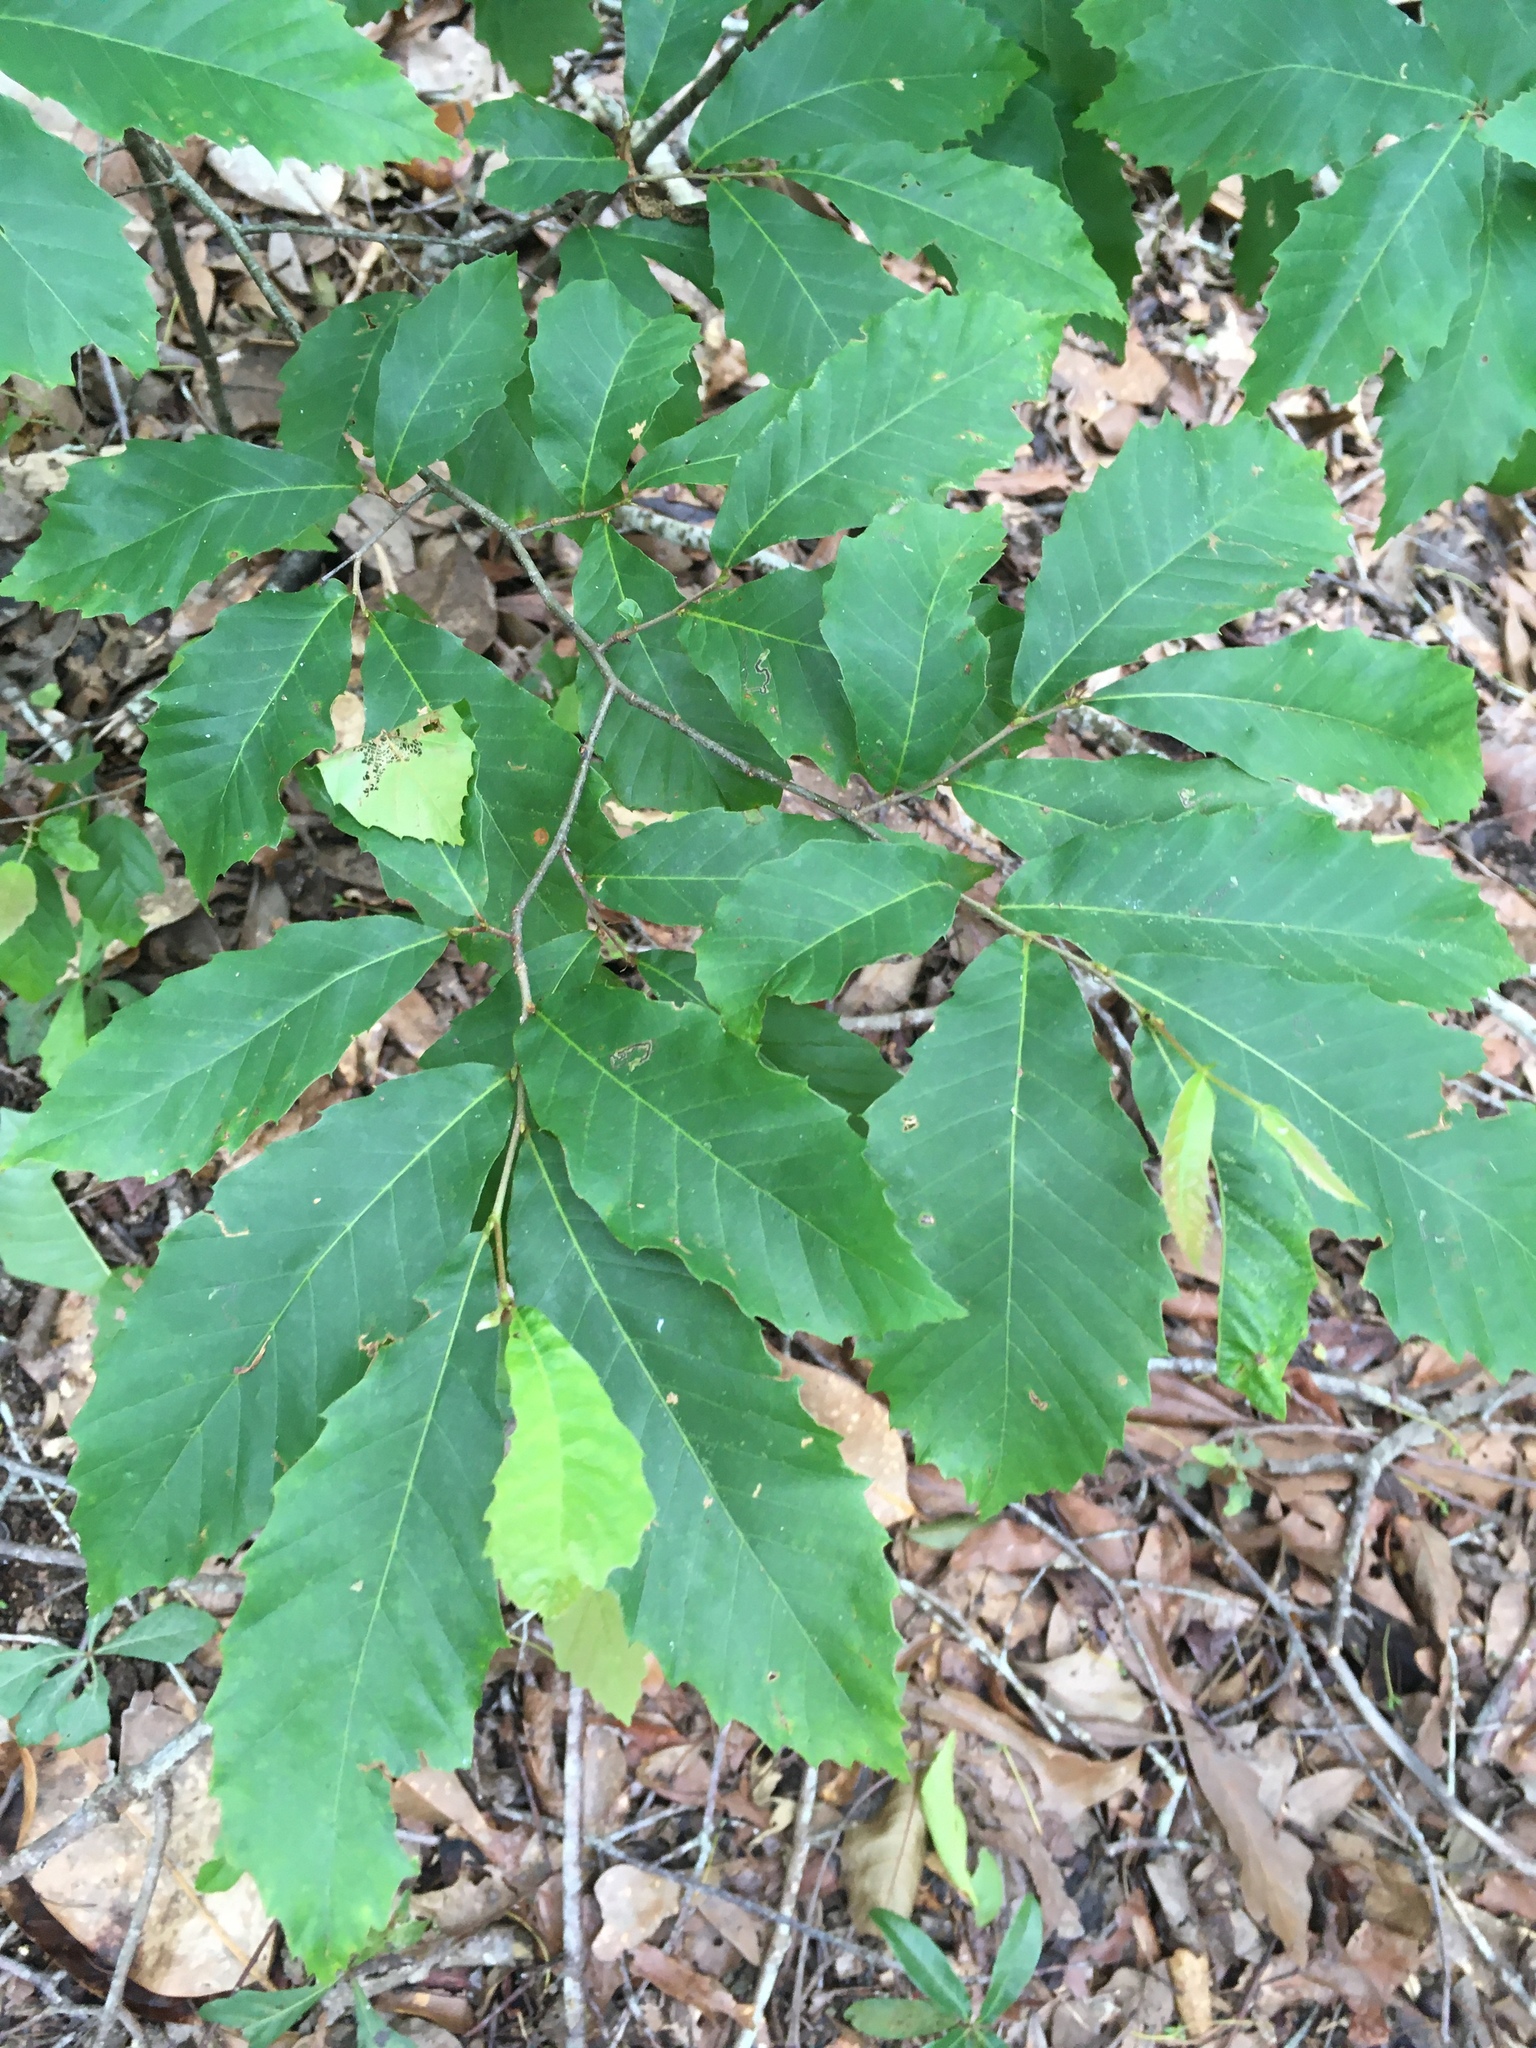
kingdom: Plantae
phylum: Tracheophyta
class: Magnoliopsida
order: Fagales
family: Fagaceae
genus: Castanea
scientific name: Castanea pumila
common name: Chinkapin
